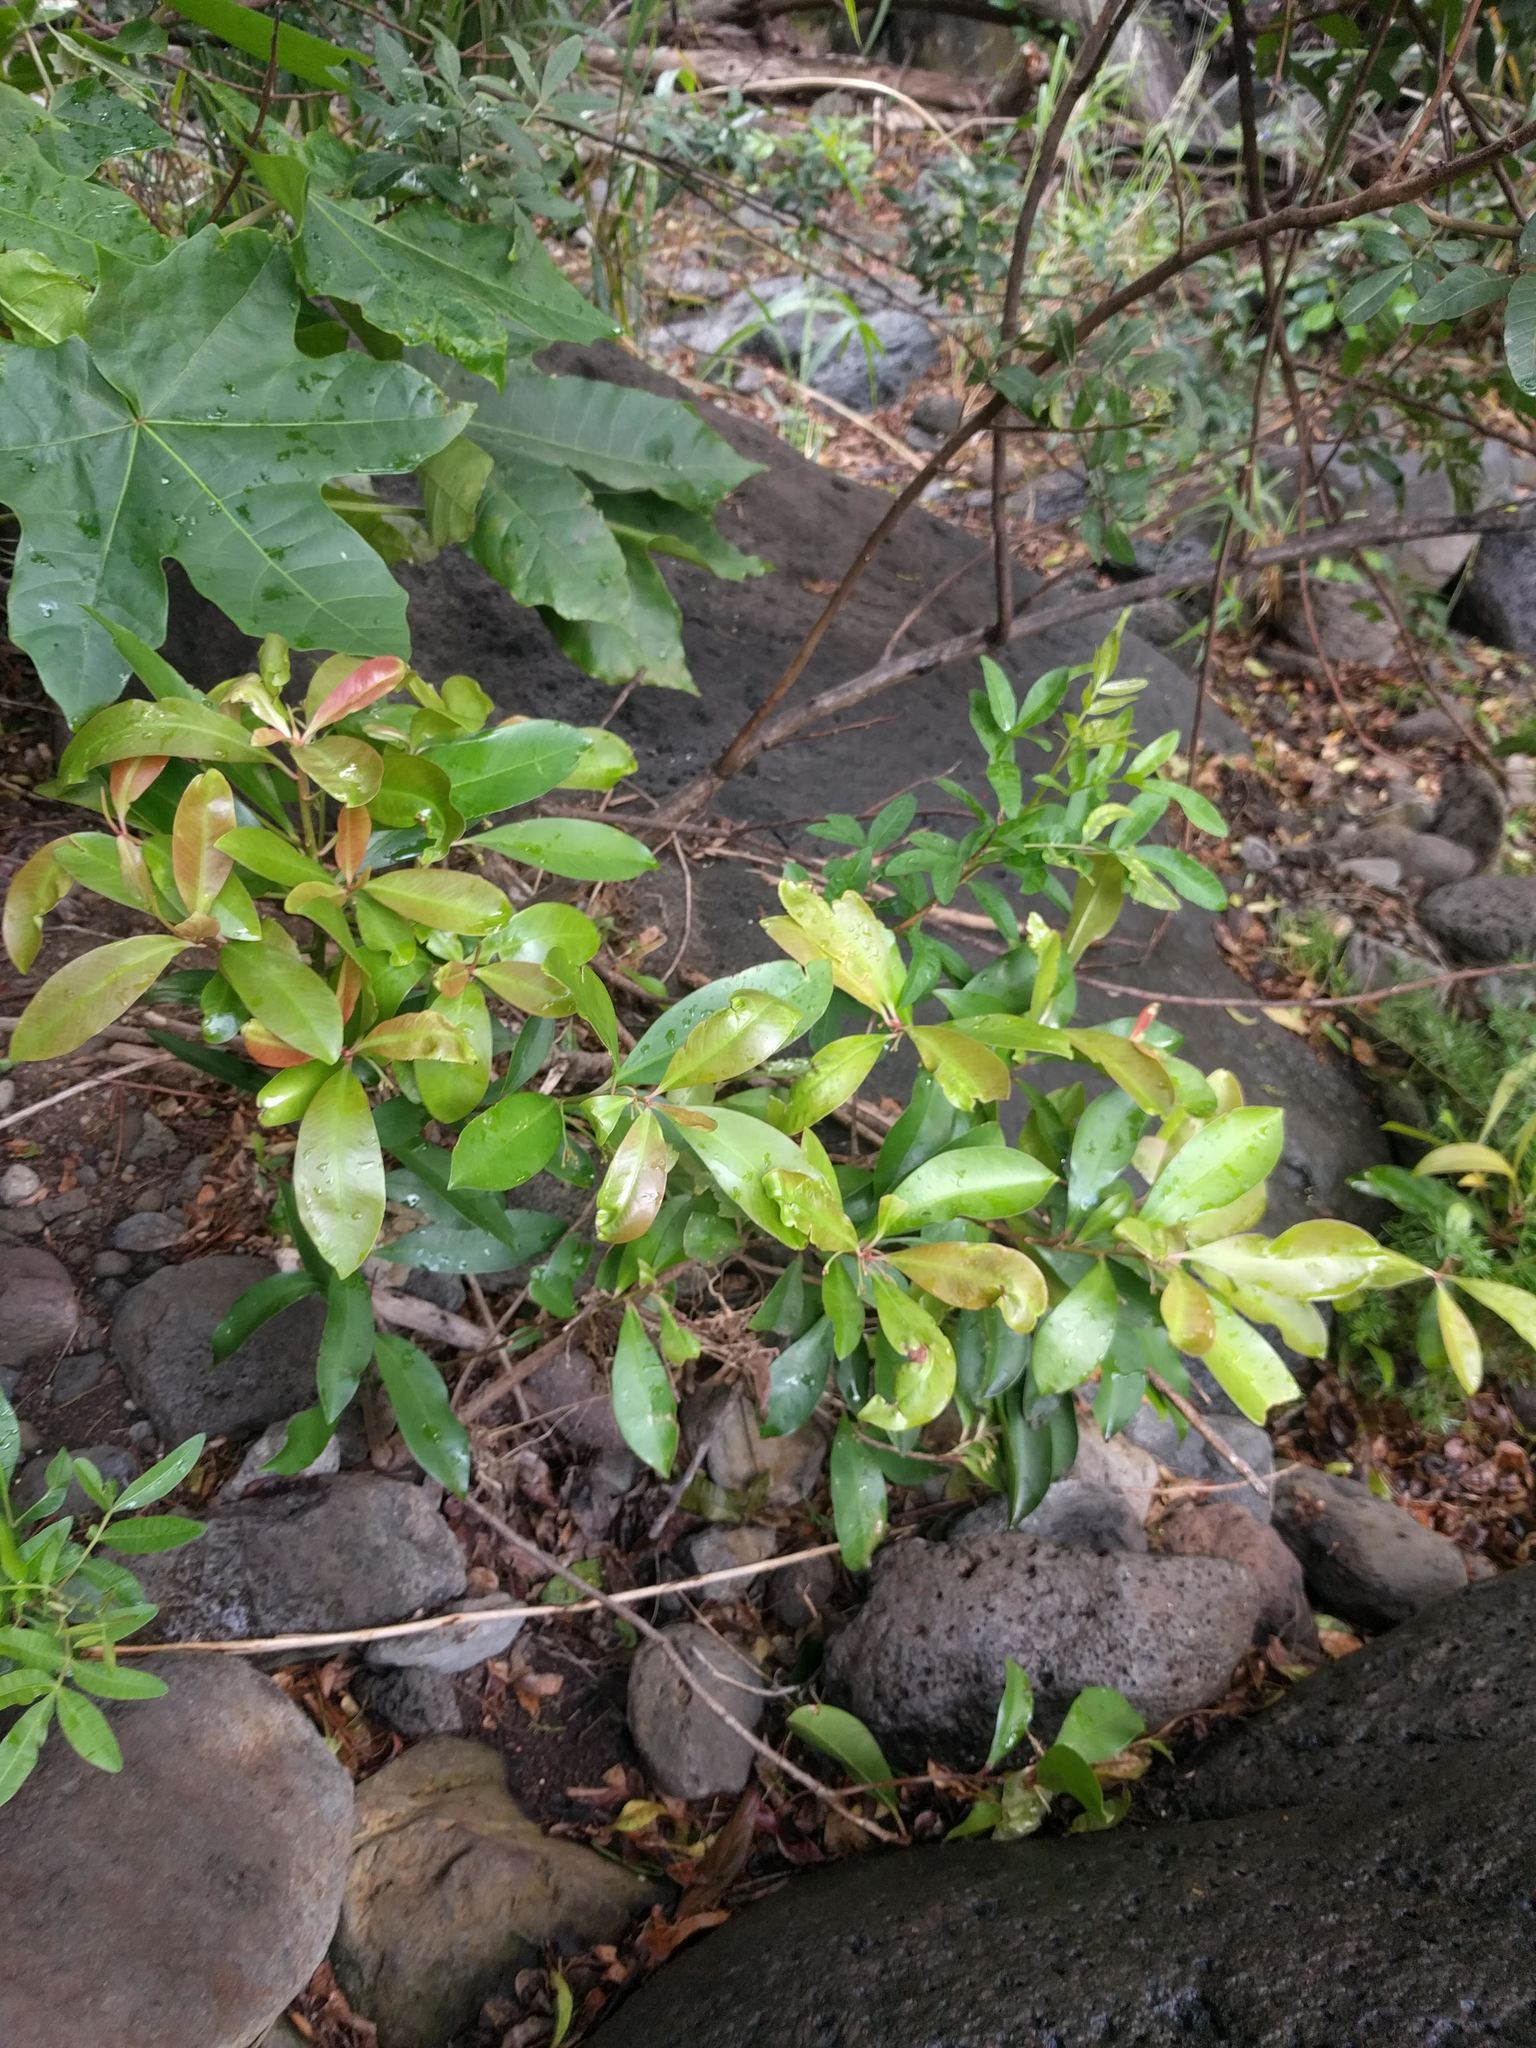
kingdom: Plantae
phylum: Tracheophyta
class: Magnoliopsida
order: Ericales
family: Primulaceae
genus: Ardisia
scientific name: Ardisia elliptica
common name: Shoebutton
